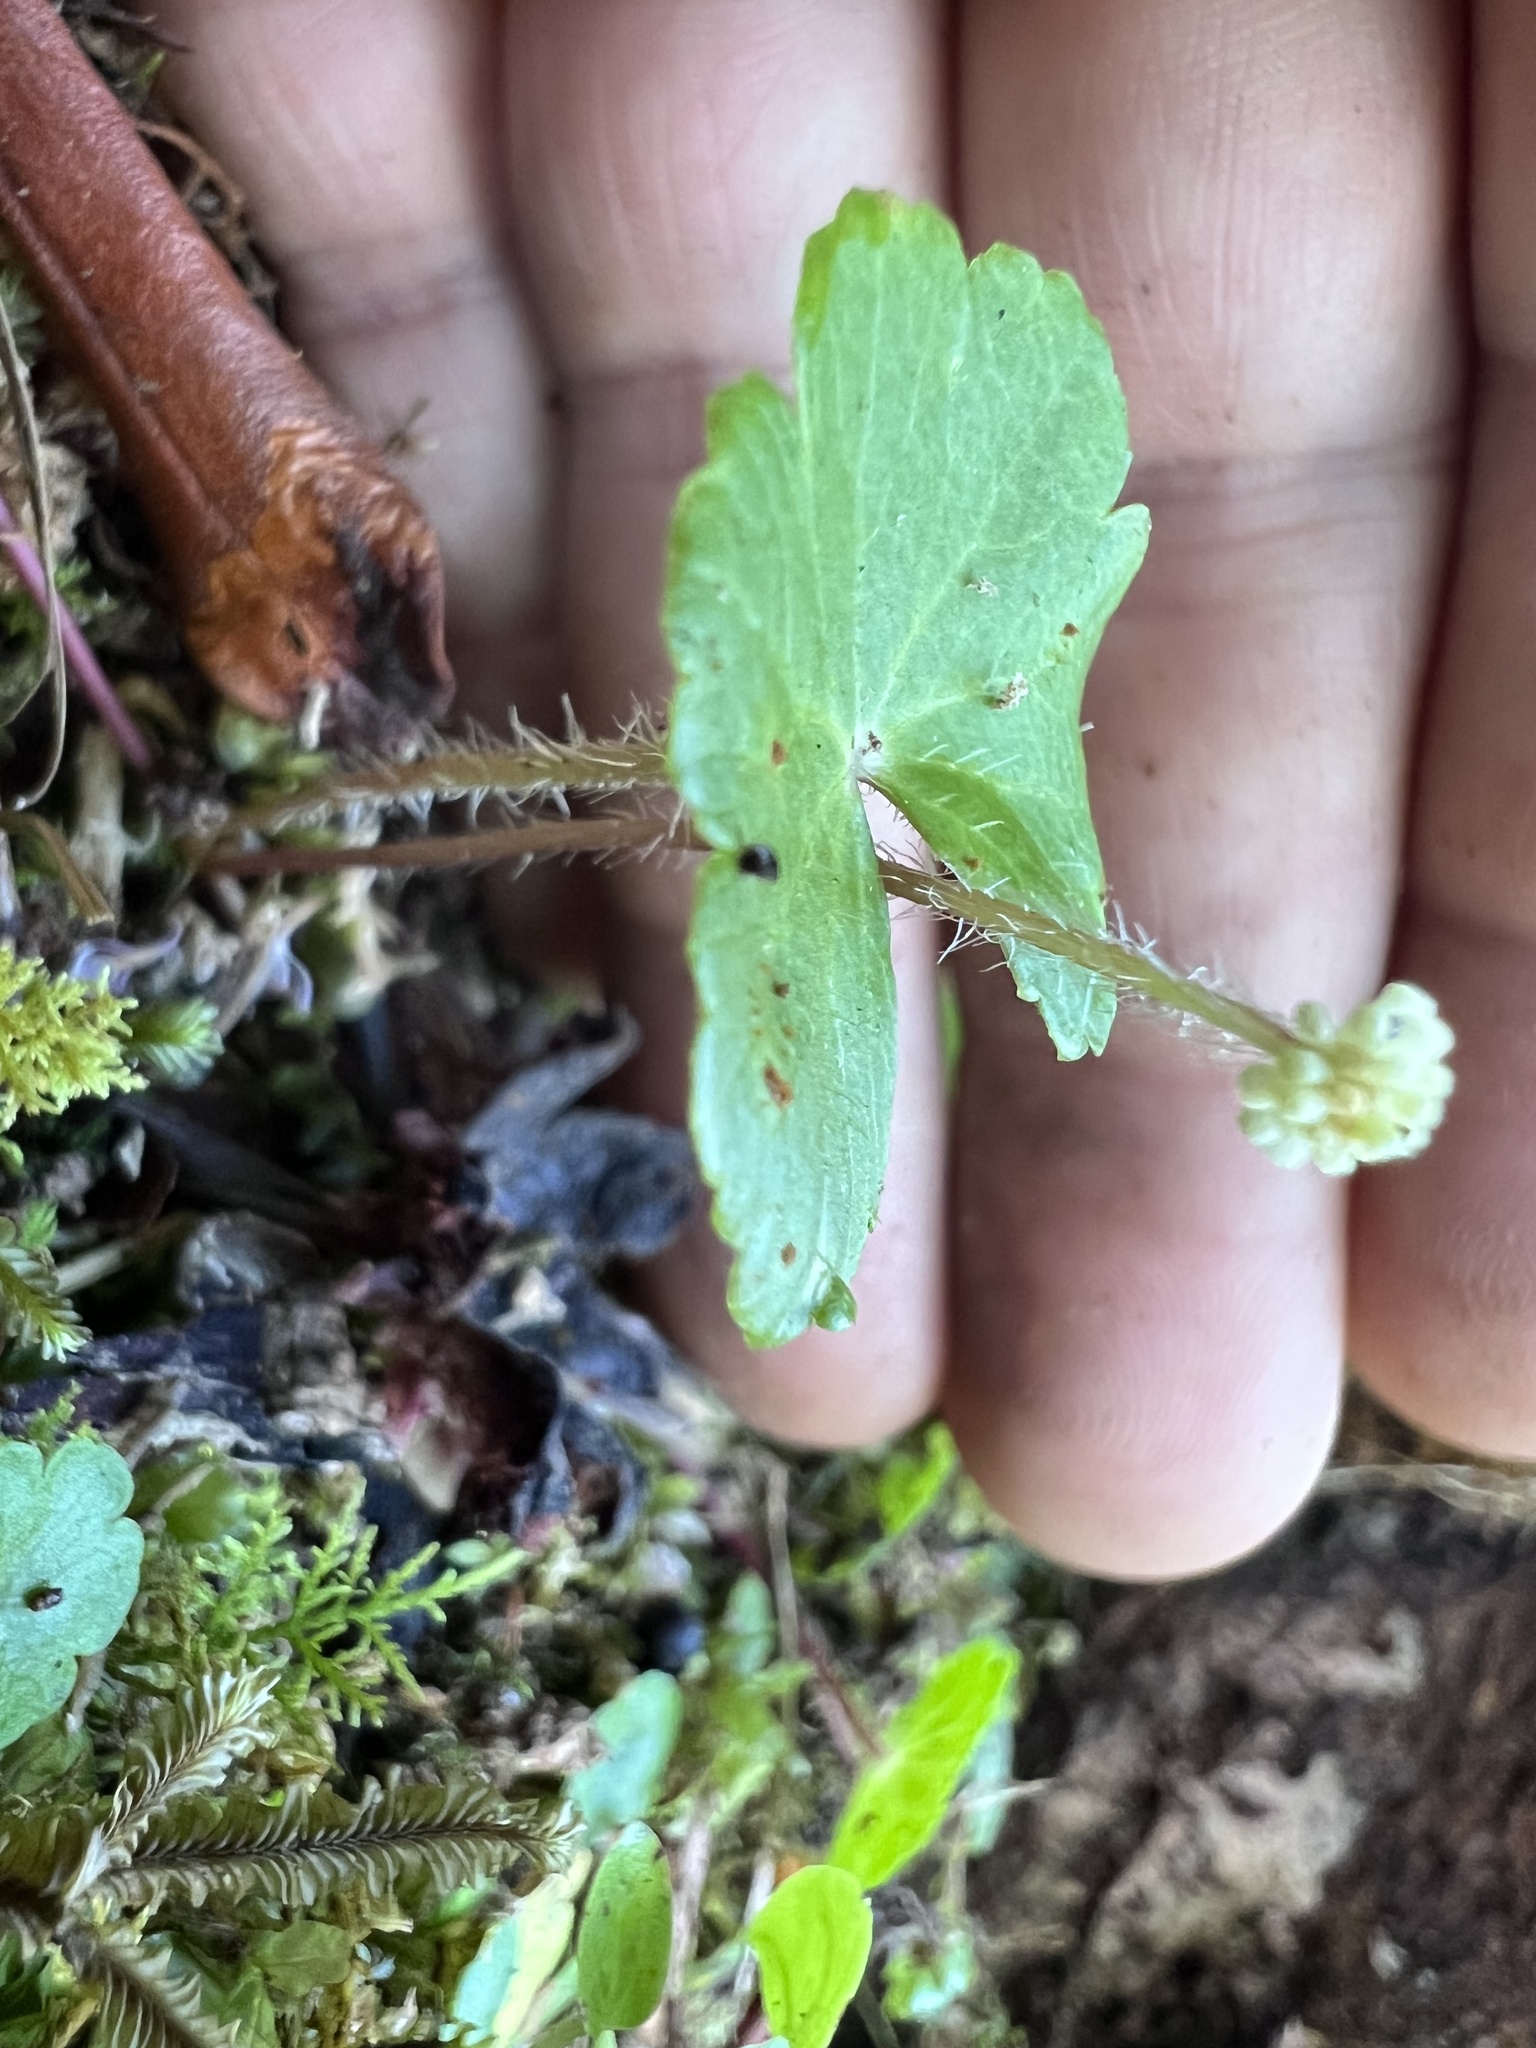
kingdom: Plantae
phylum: Tracheophyta
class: Magnoliopsida
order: Apiales
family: Araliaceae
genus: Hydrocotyle
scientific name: Hydrocotyle leucocephala
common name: Brazilian pennywort
